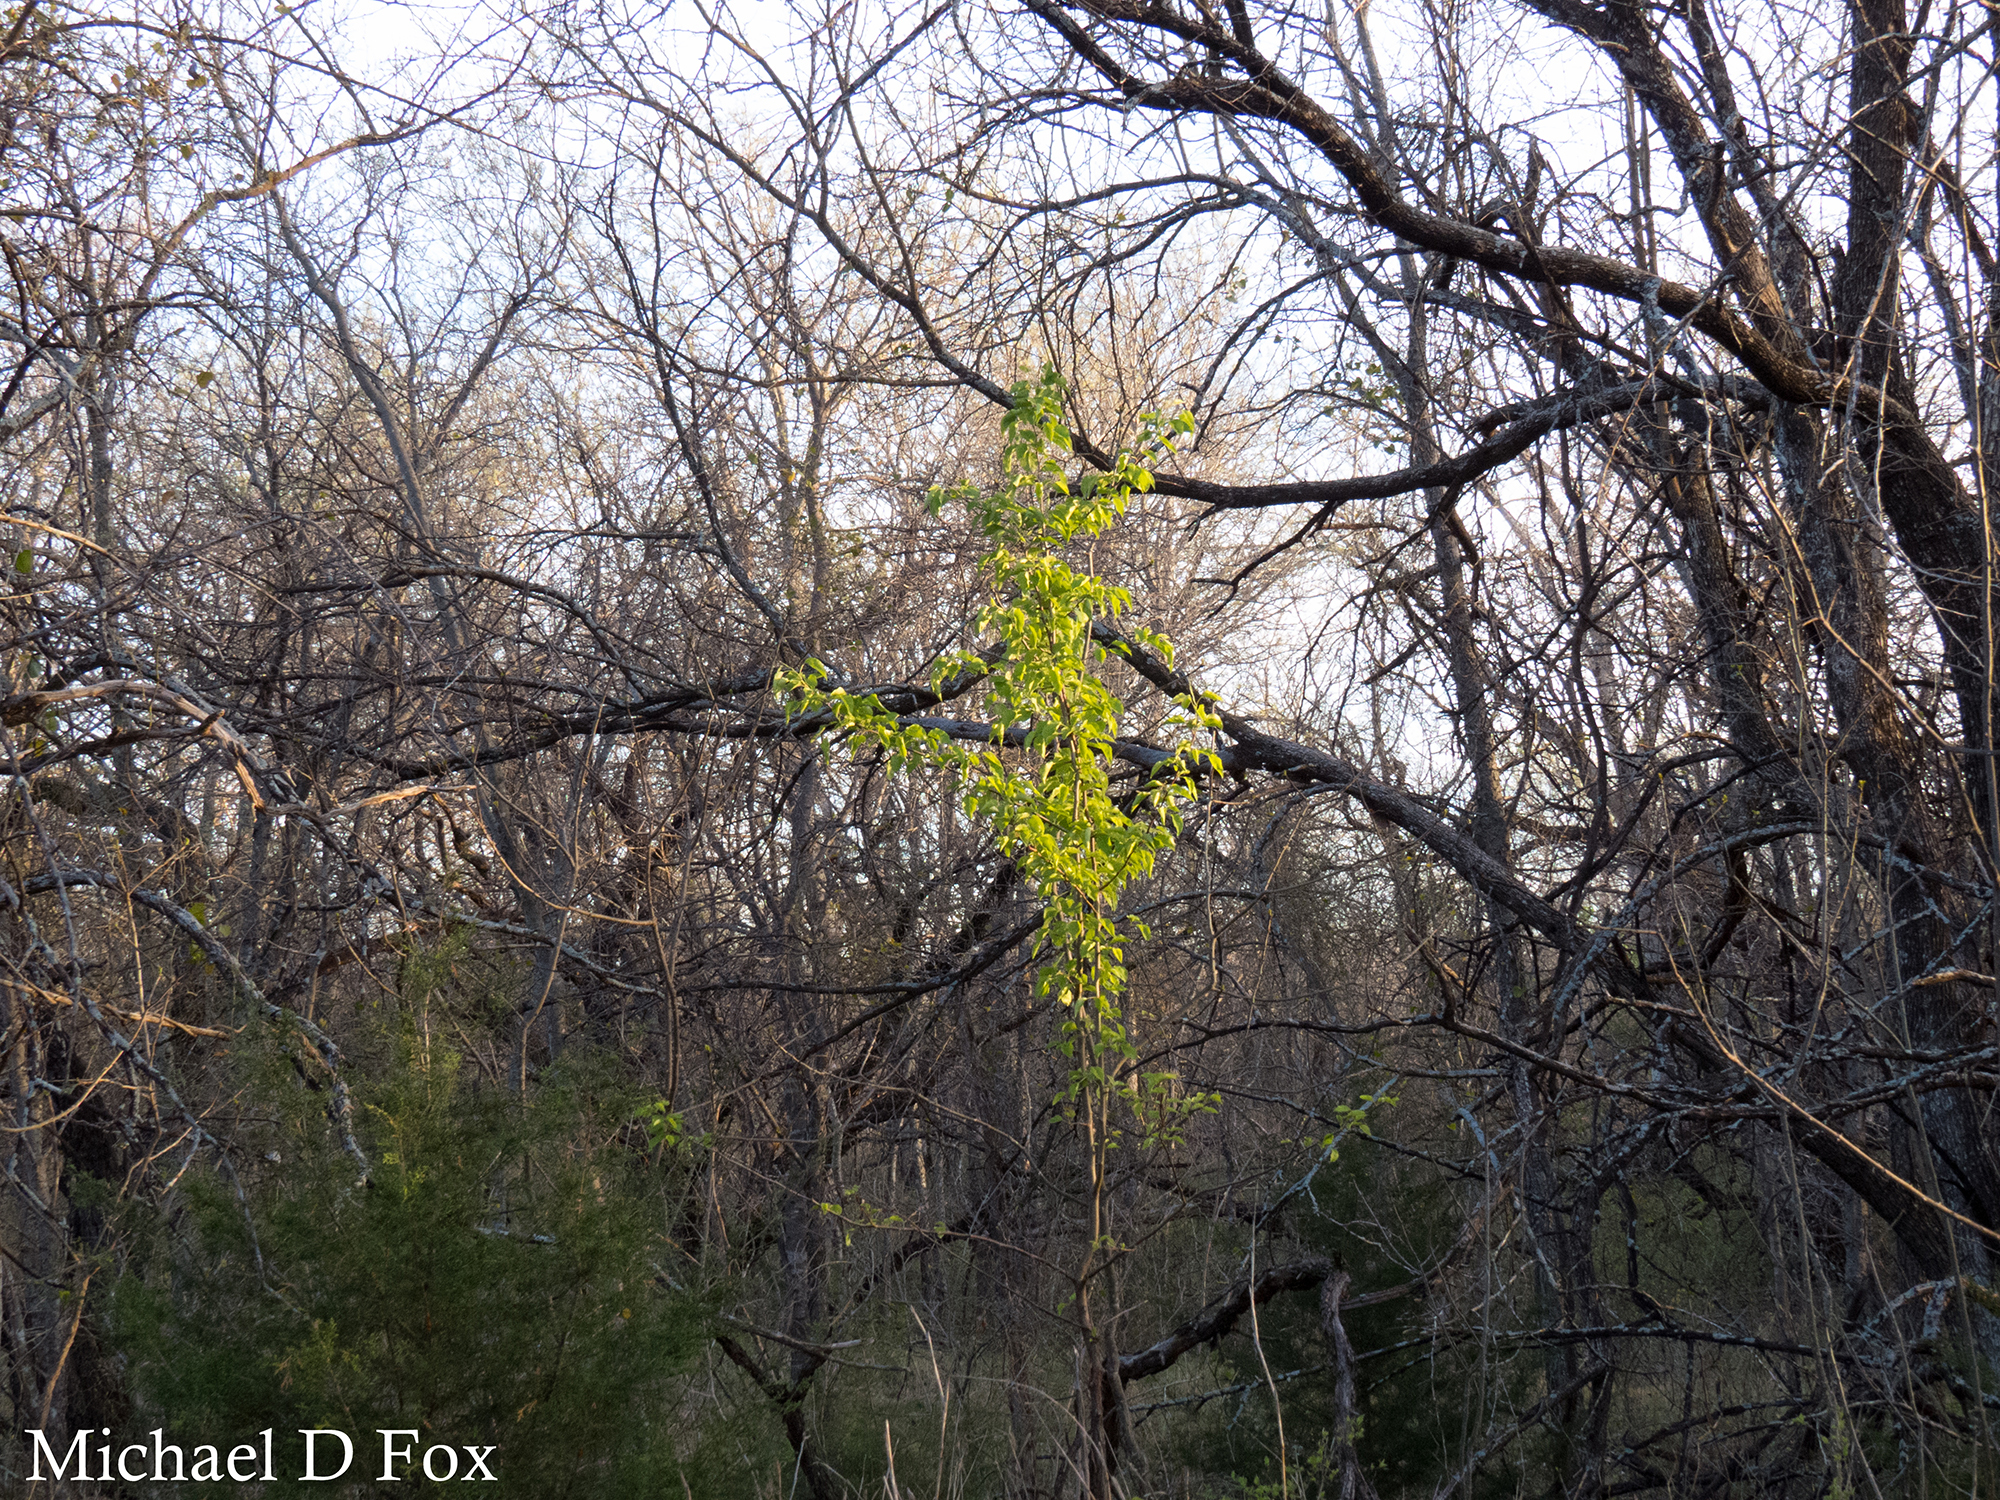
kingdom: Plantae
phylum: Tracheophyta
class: Magnoliopsida
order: Rosales
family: Rosaceae
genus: Pyrus
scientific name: Pyrus calleryana
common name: Callery pear
